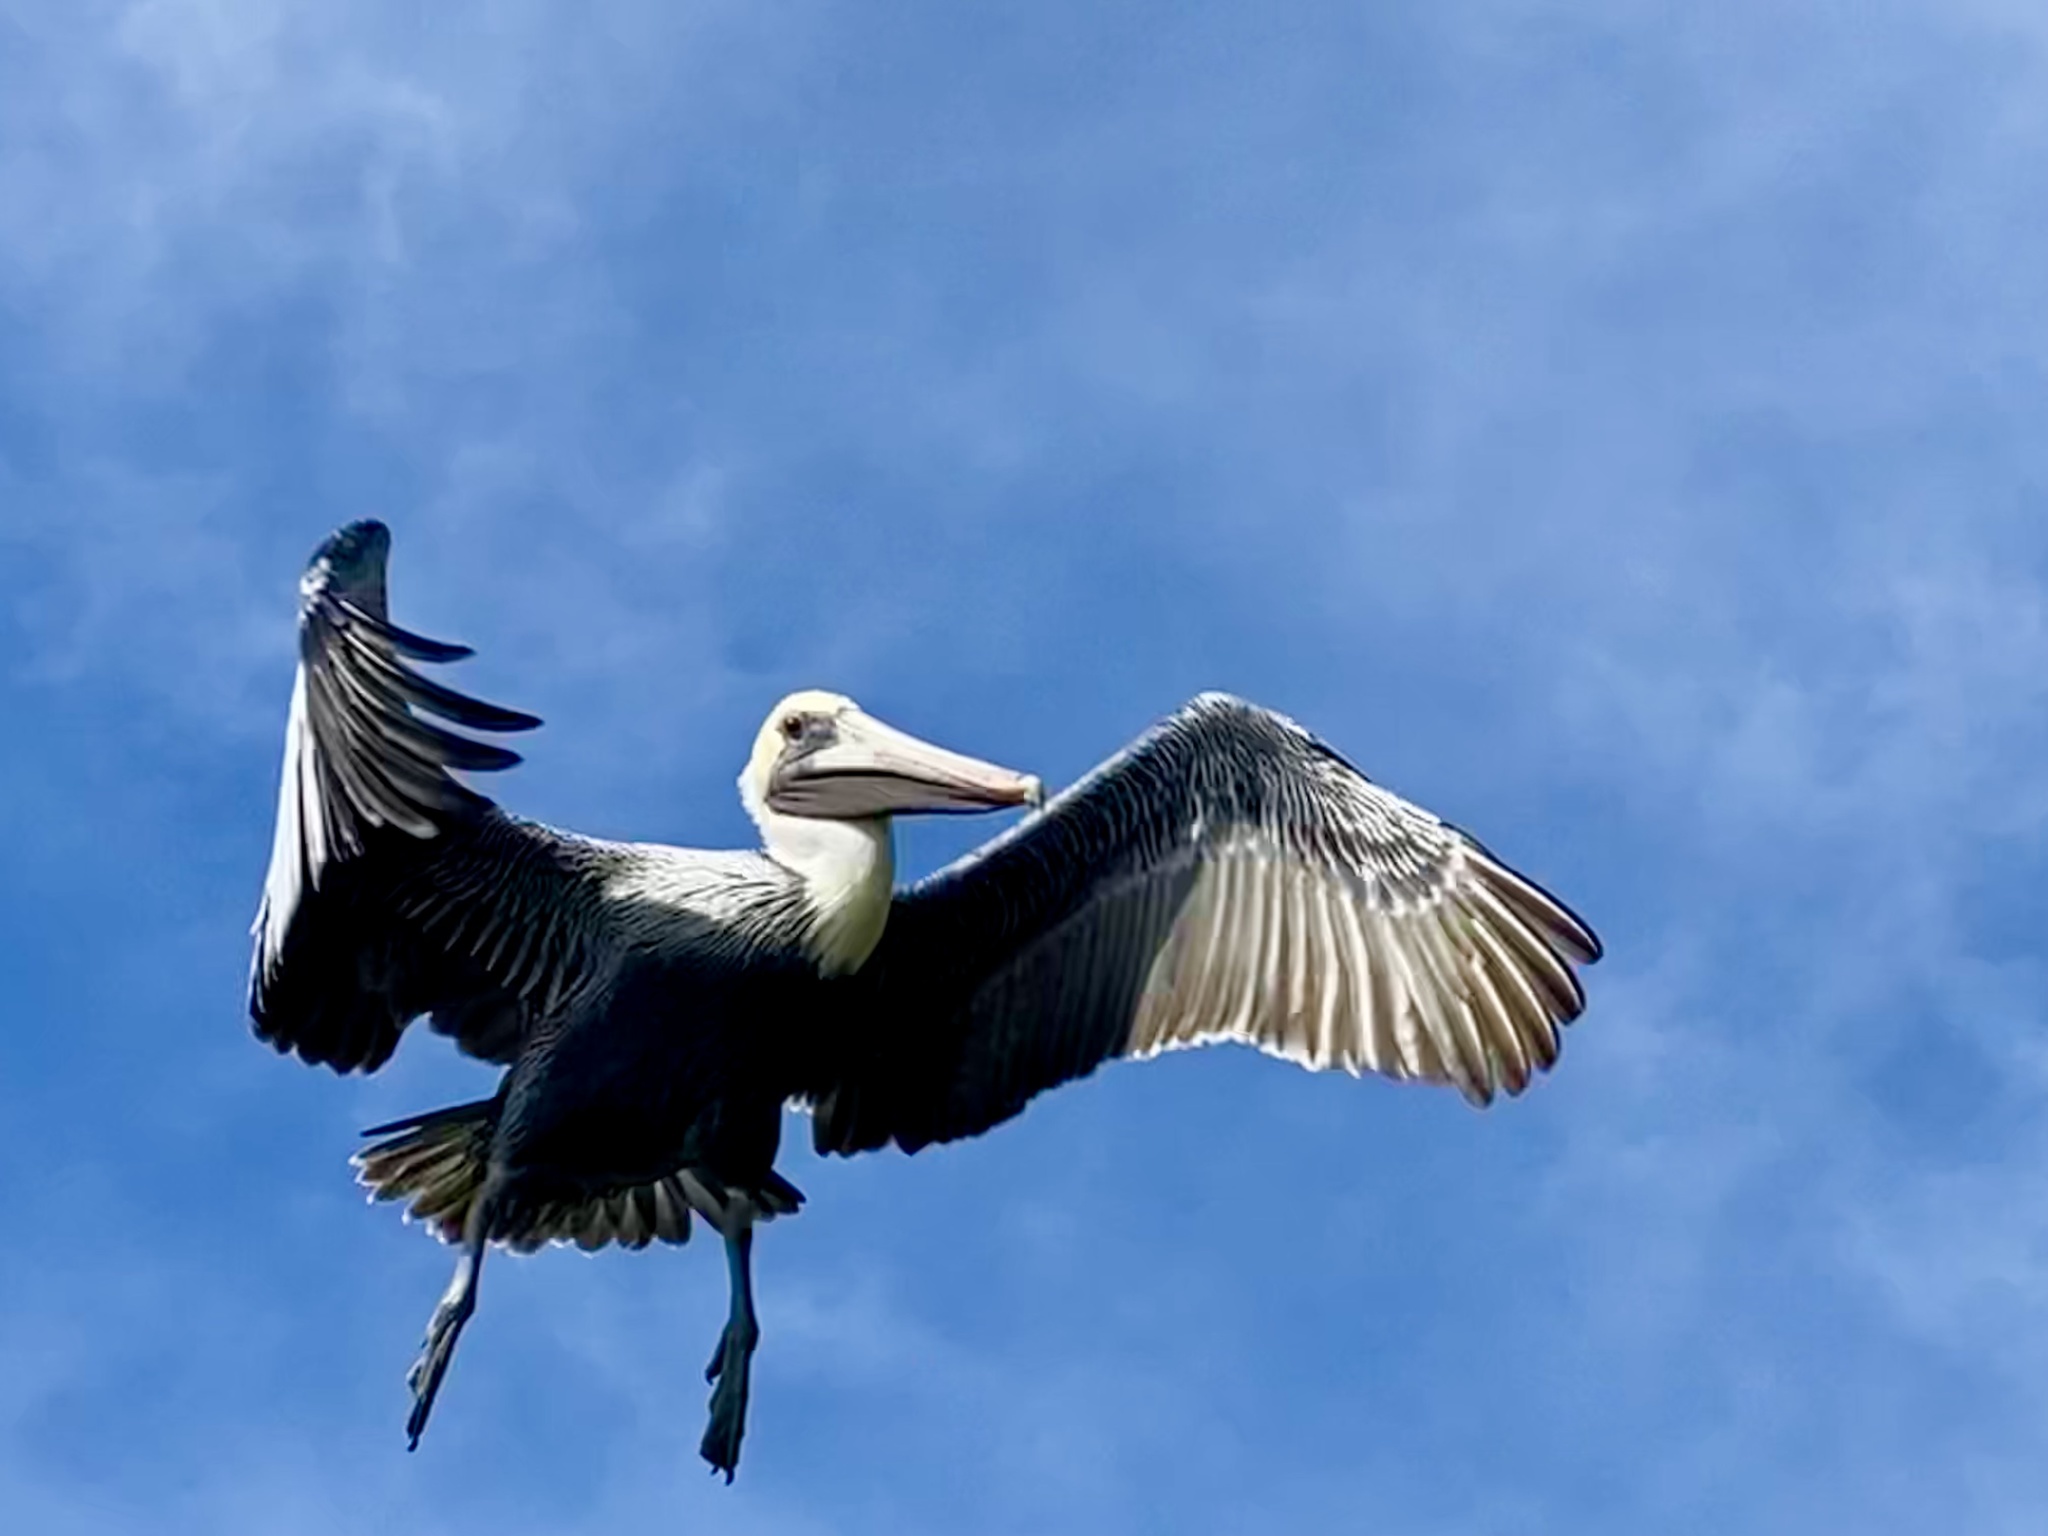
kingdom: Animalia
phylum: Chordata
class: Aves
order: Pelecaniformes
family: Pelecanidae
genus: Pelecanus
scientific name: Pelecanus occidentalis
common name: Brown pelican
